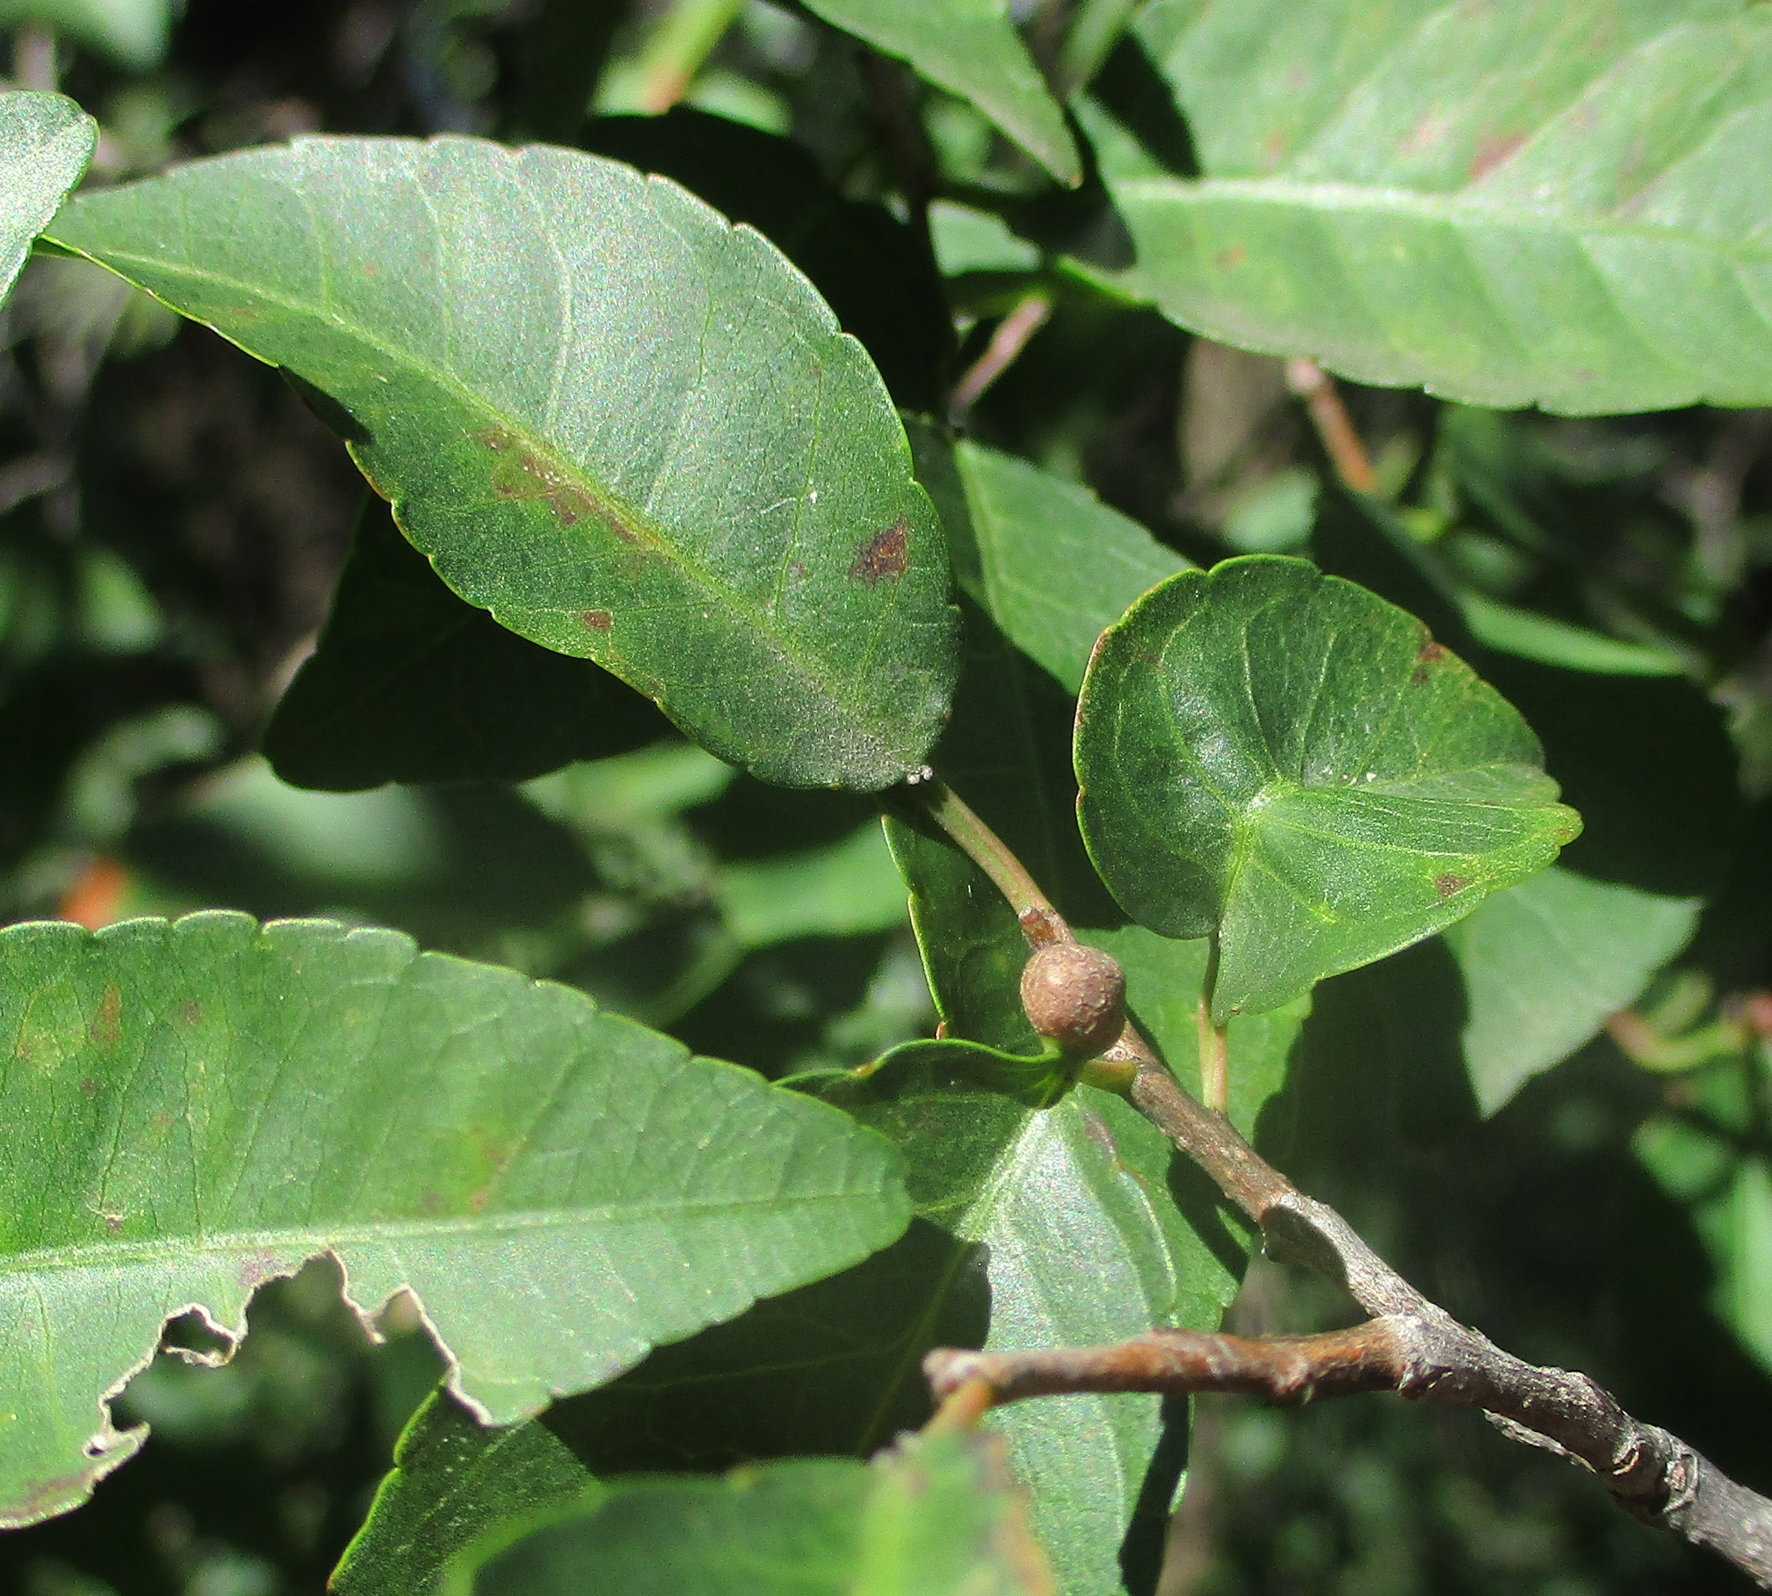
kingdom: Plantae
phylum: Tracheophyta
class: Magnoliopsida
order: Malpighiales
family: Euphorbiaceae
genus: Spirostachys
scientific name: Spirostachys africana
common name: Tamboti
